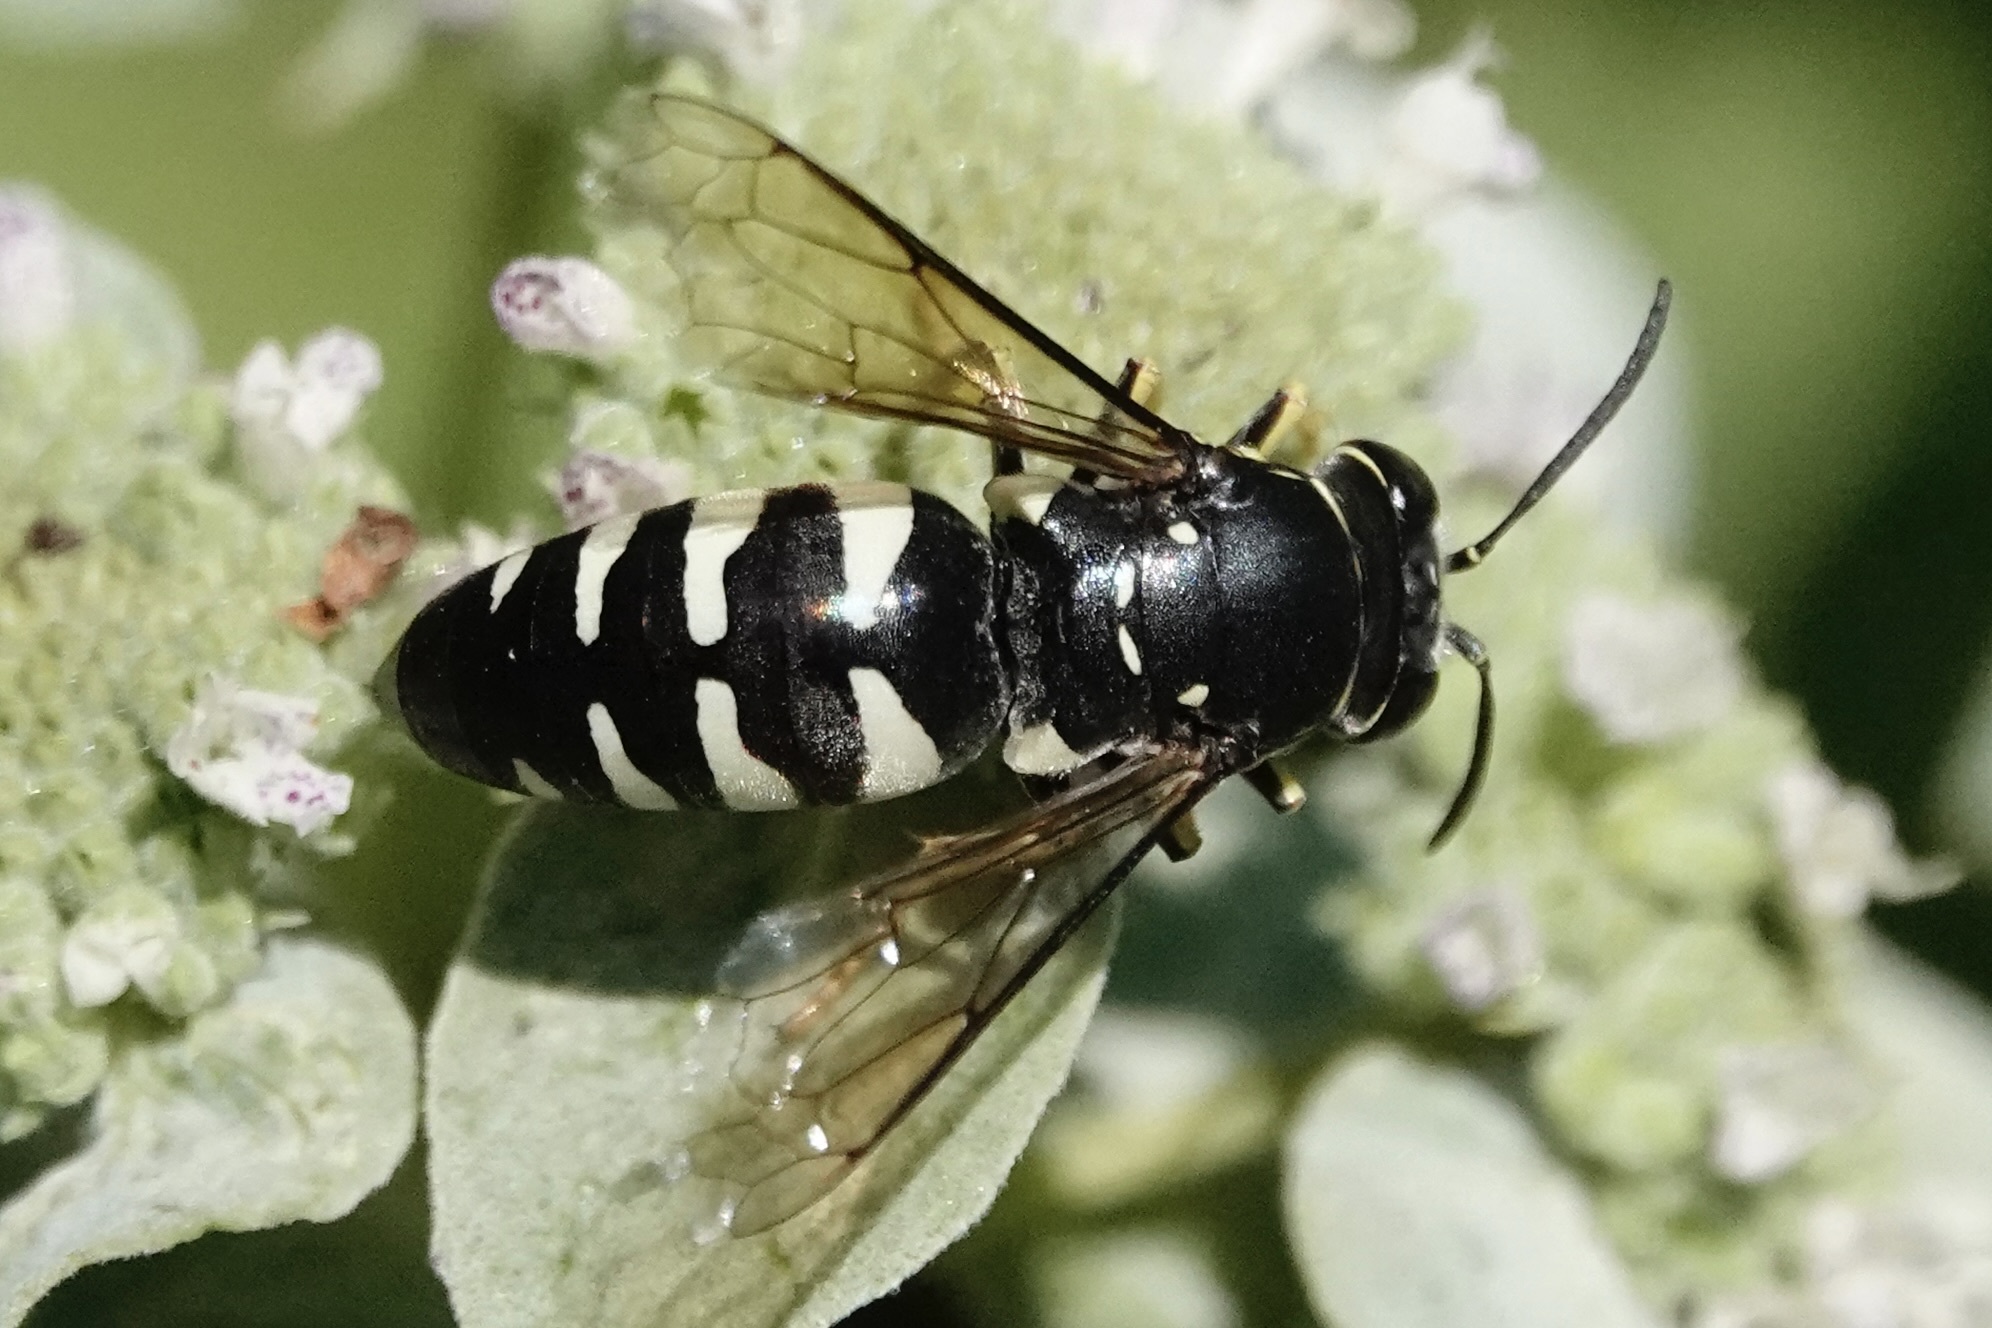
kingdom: Animalia
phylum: Arthropoda
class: Insecta
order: Hymenoptera
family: Crabronidae
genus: Bicyrtes
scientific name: Bicyrtes quadrifasciatus
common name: Four-banded stink bug hunter wasp
